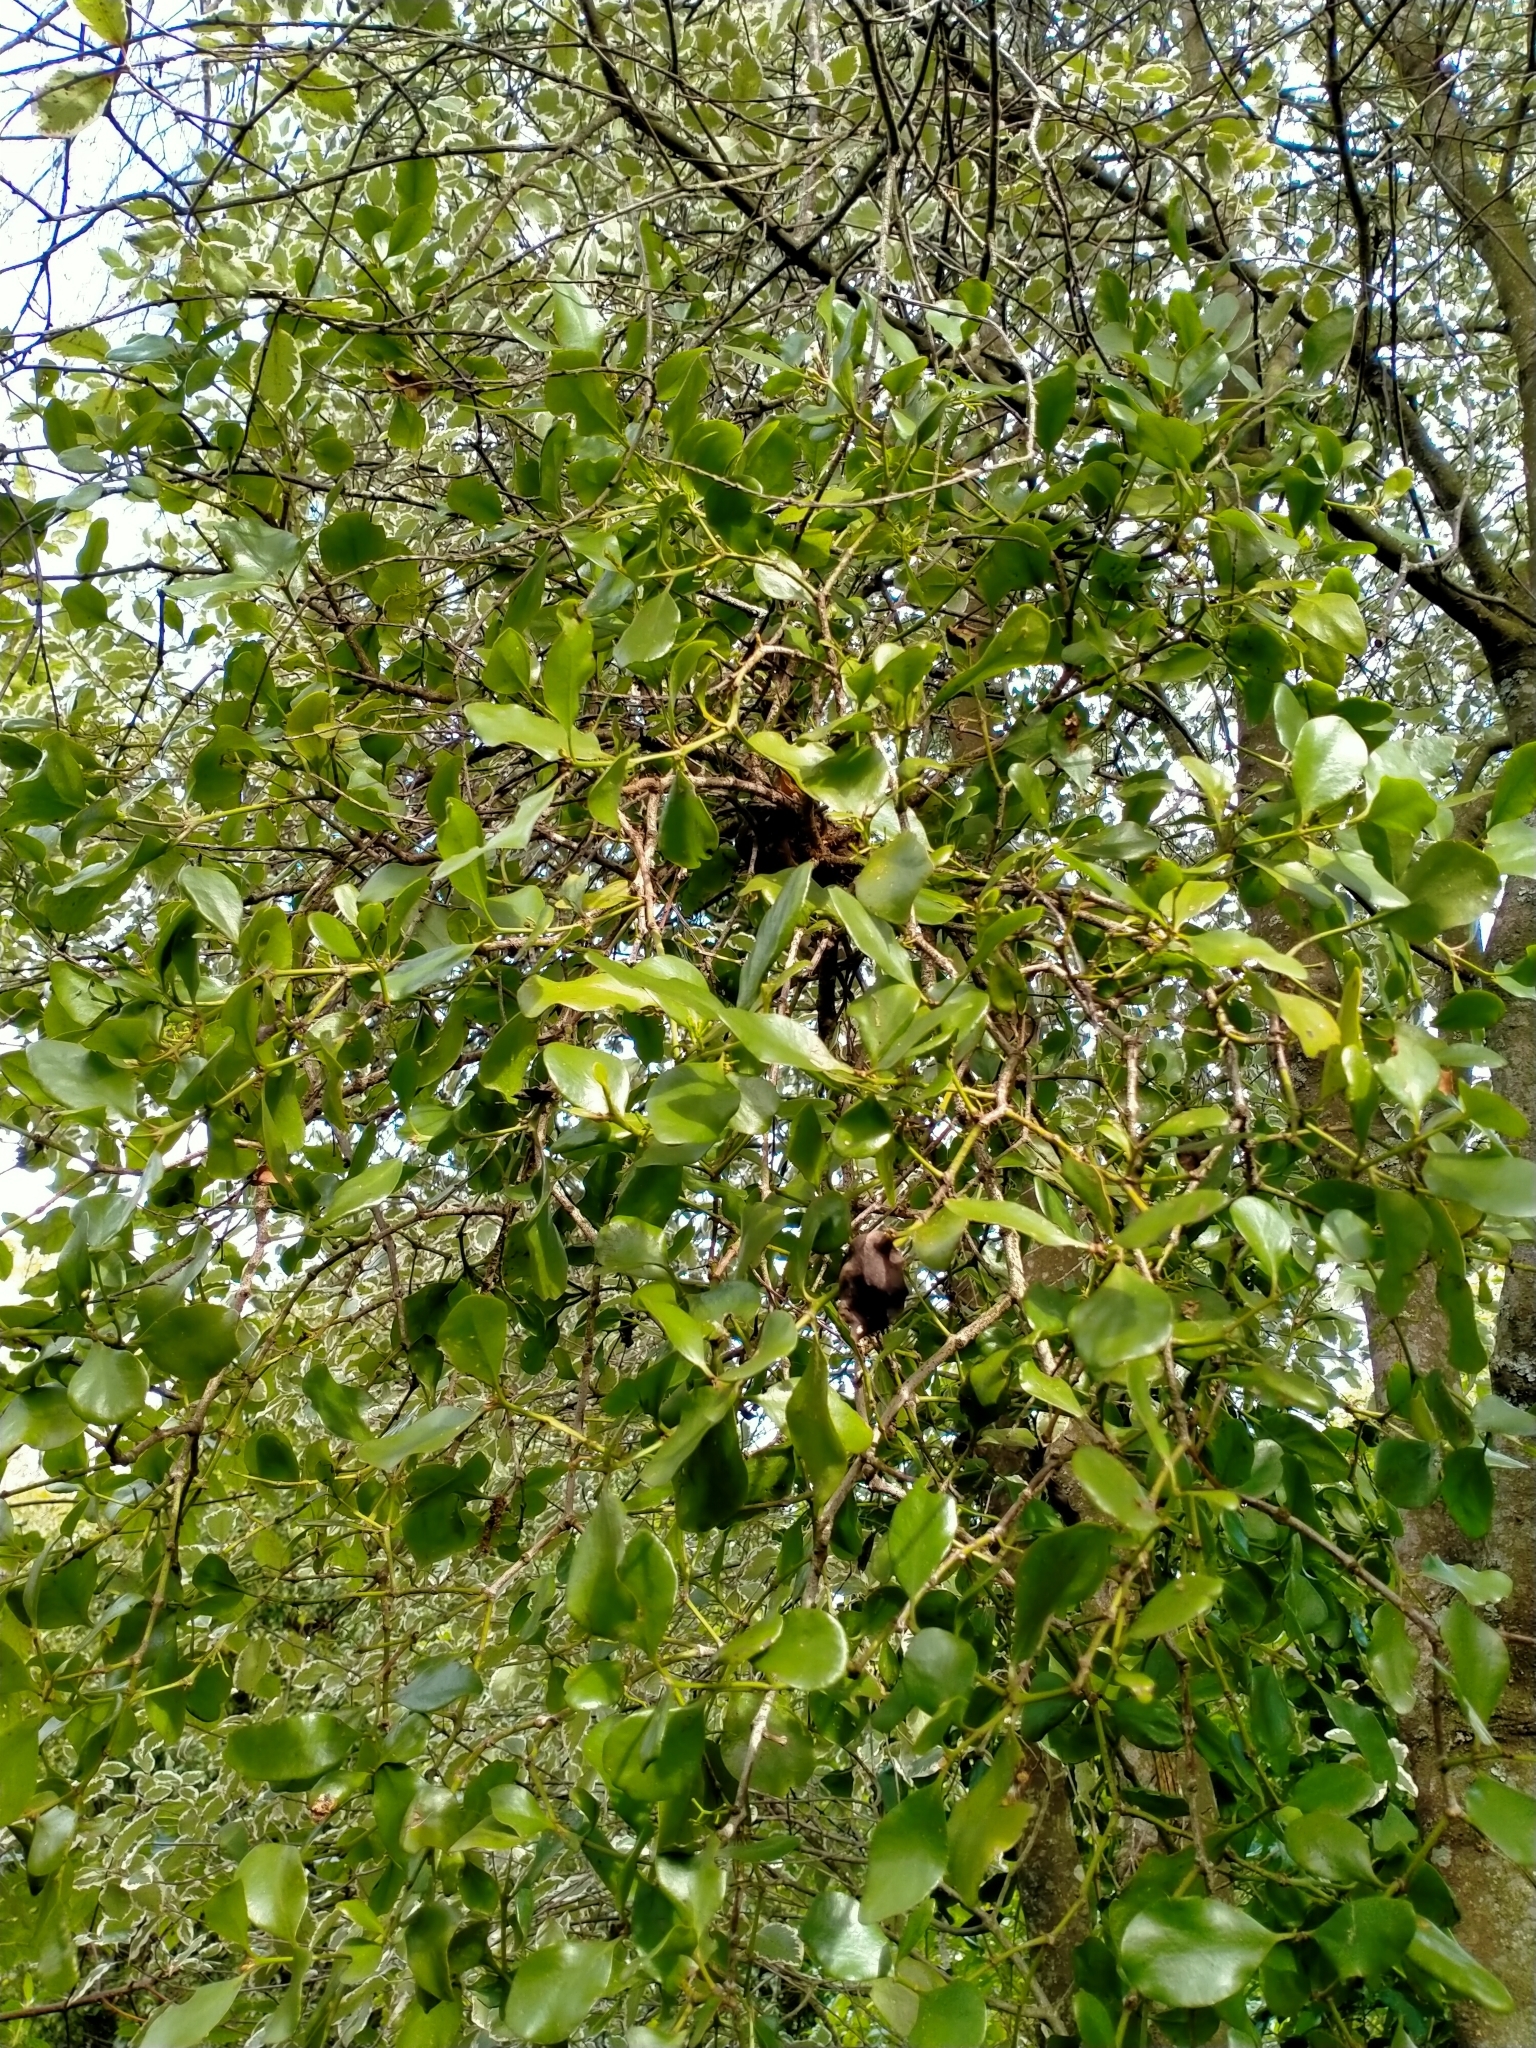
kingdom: Plantae
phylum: Tracheophyta
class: Magnoliopsida
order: Santalales
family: Loranthaceae
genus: Ileostylus
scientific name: Ileostylus micranthus
